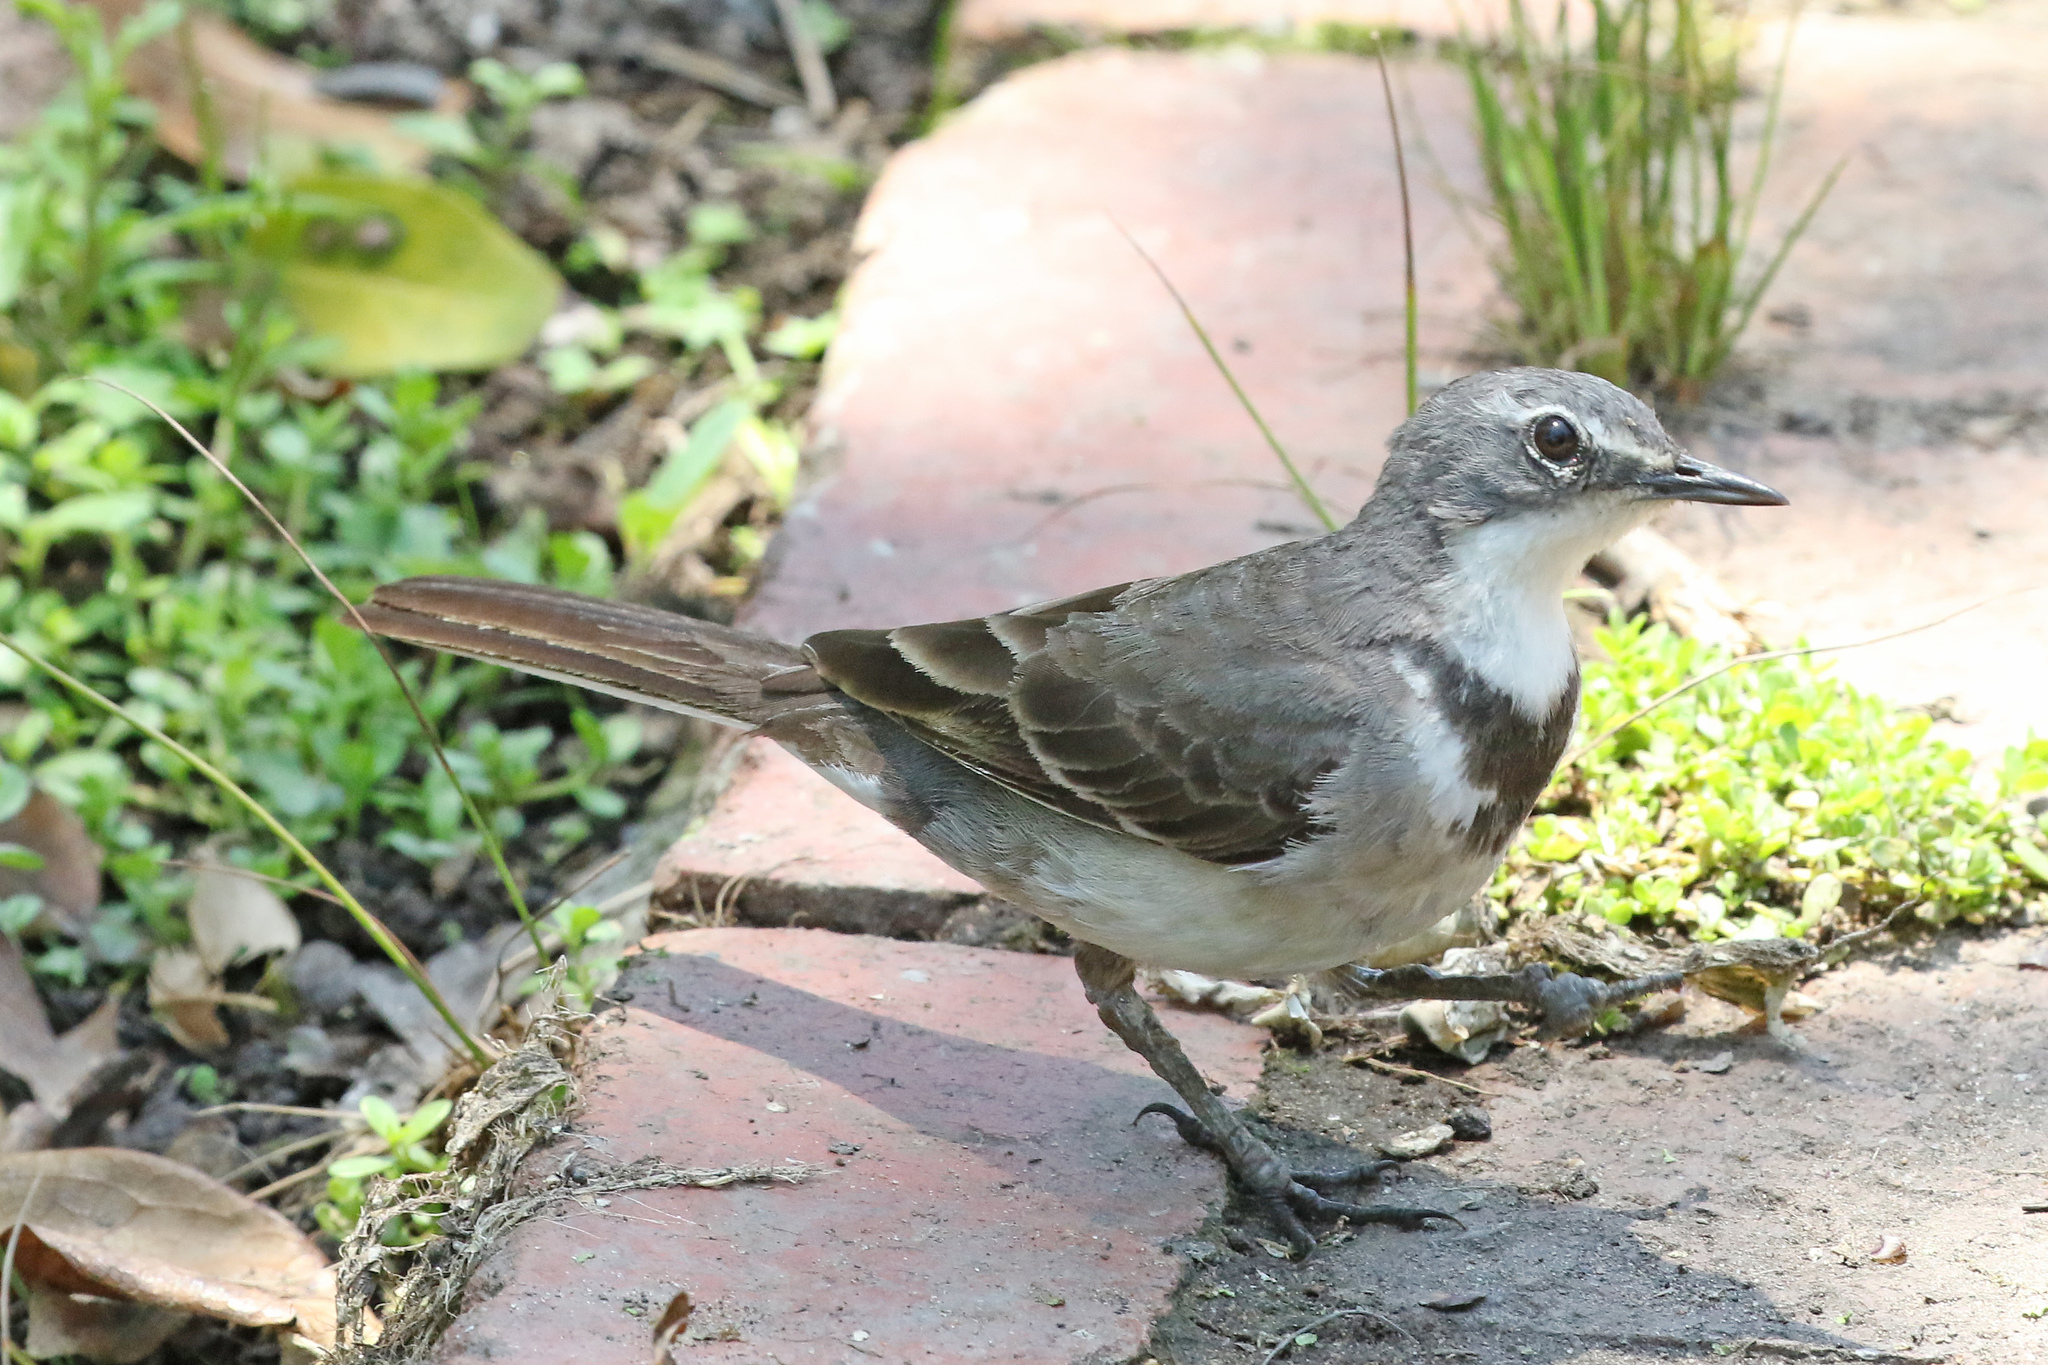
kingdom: Animalia
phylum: Chordata
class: Aves
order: Passeriformes
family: Motacillidae
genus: Motacilla
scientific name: Motacilla capensis
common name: Cape wagtail
